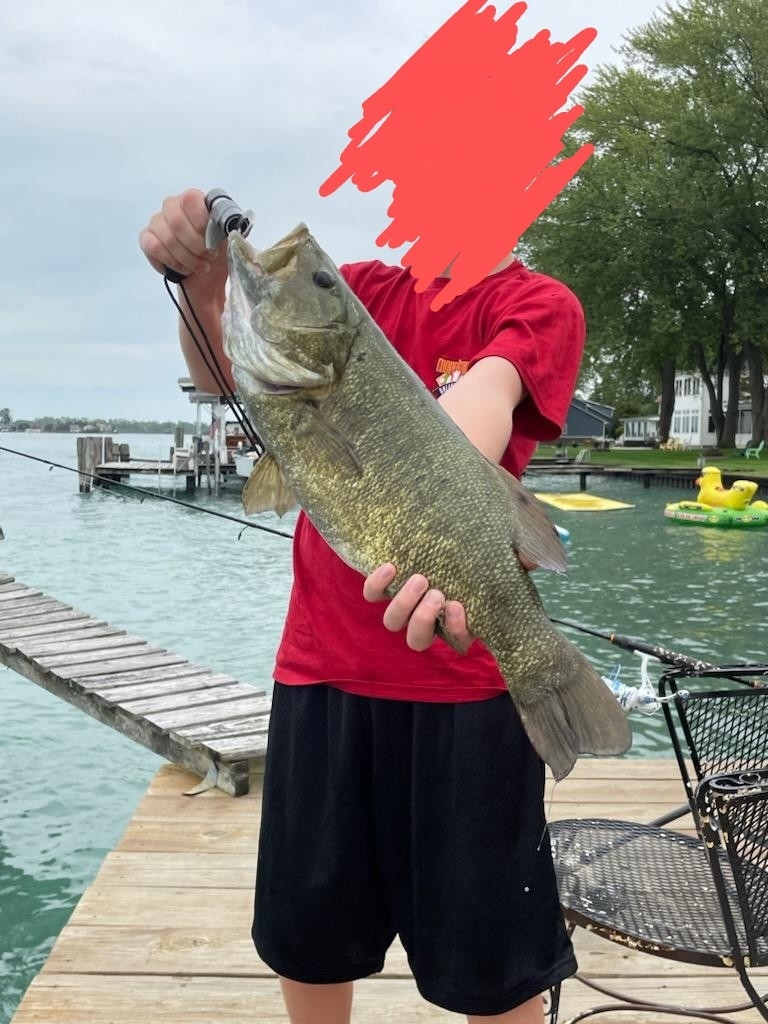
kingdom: Animalia
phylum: Chordata
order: Perciformes
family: Centrarchidae
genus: Micropterus
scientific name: Micropterus dolomieu
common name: Smallmouth bass
